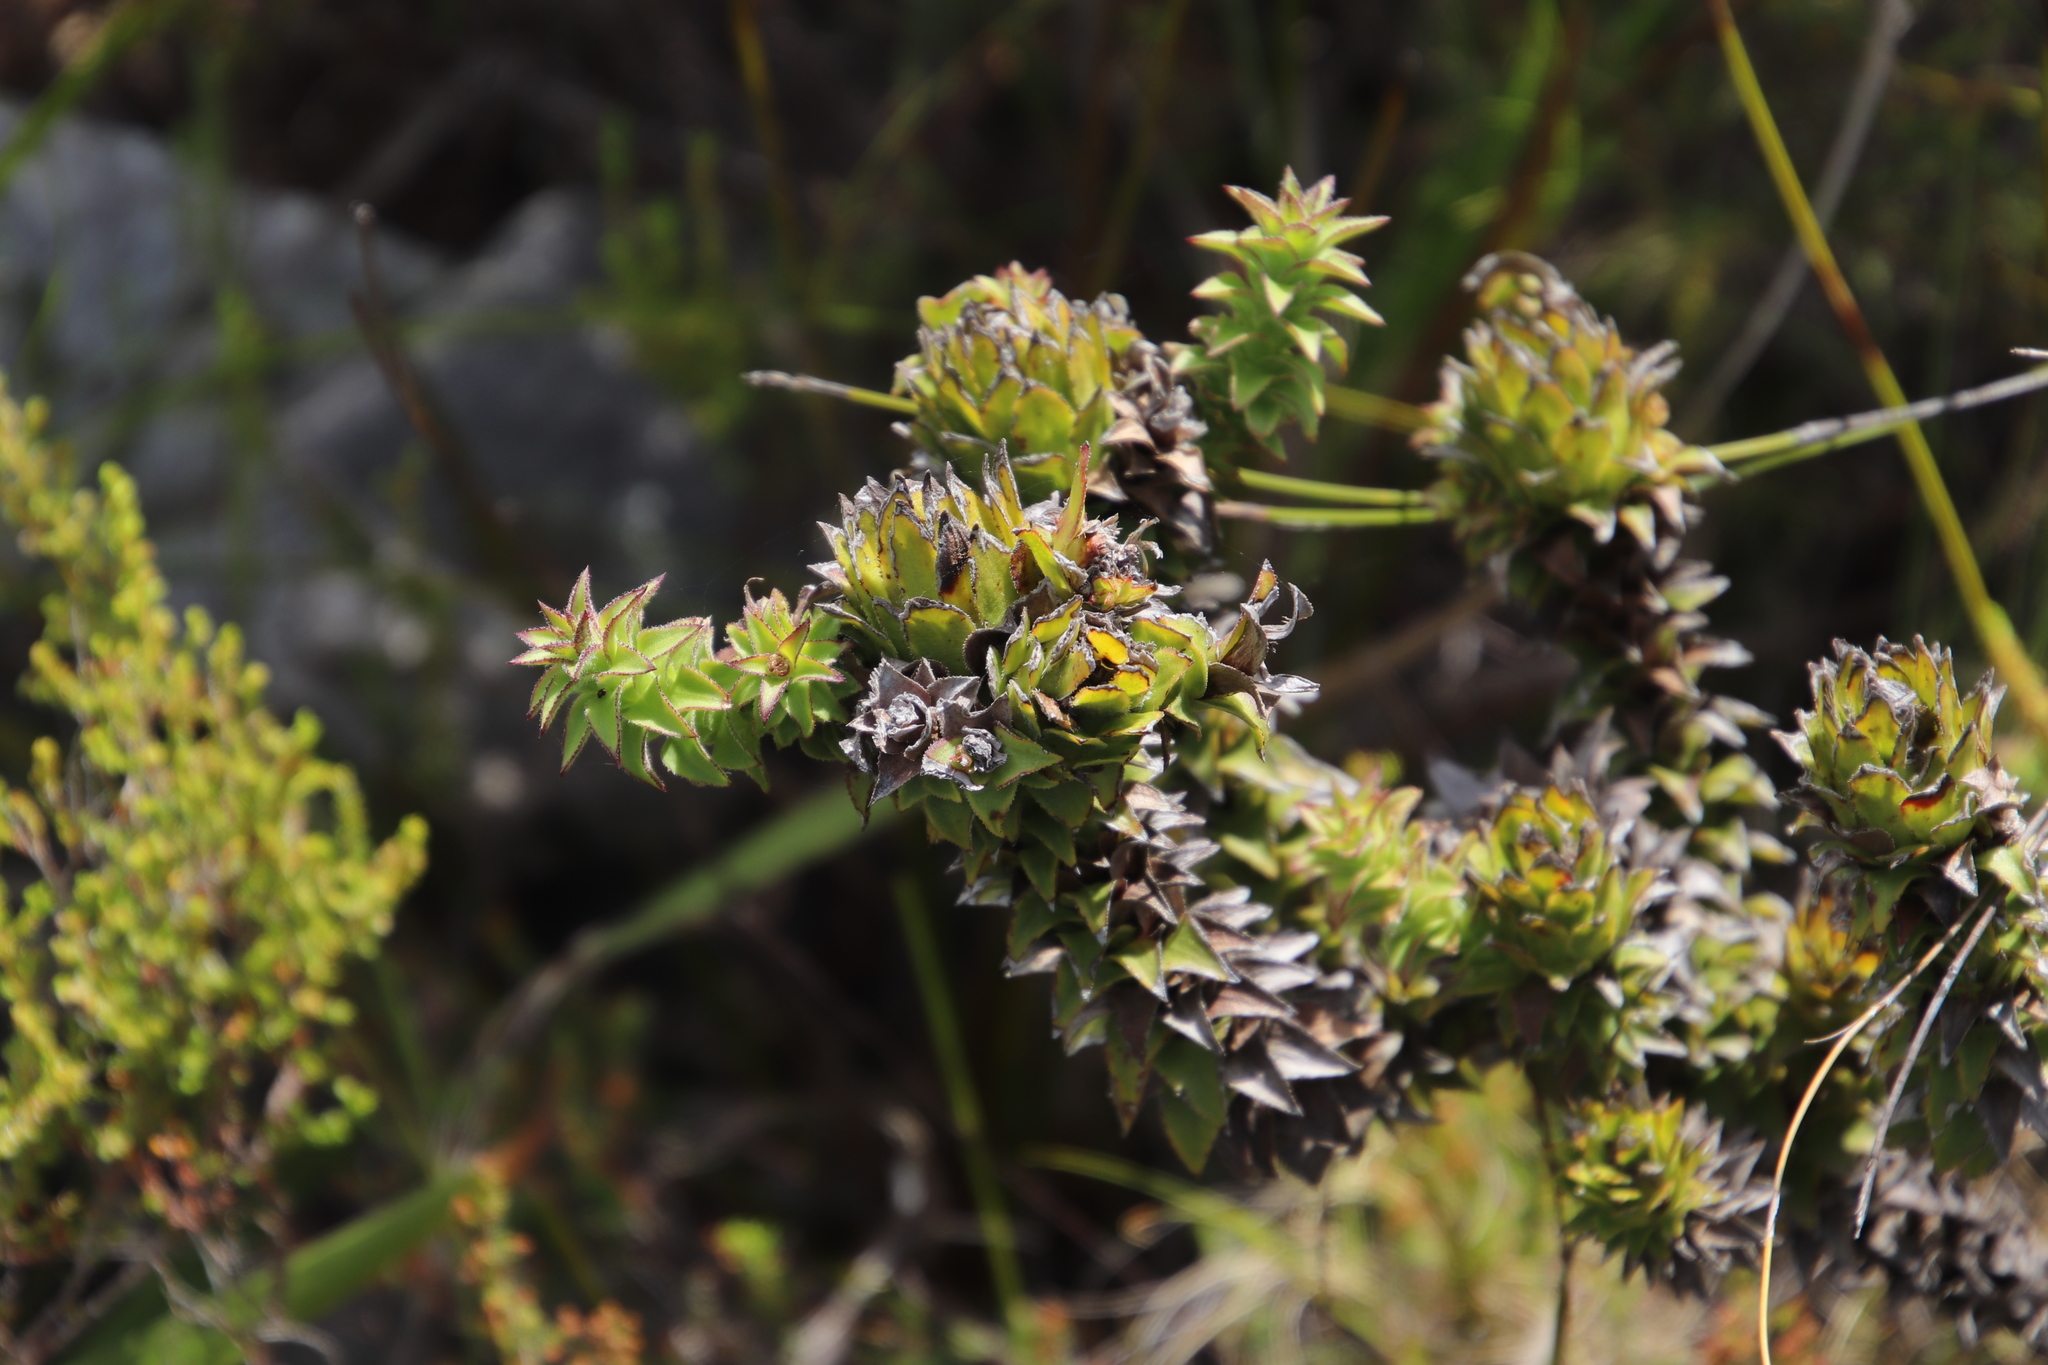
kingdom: Plantae
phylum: Tracheophyta
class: Magnoliopsida
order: Asterales
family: Asteraceae
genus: Oedera
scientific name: Oedera imbricata
